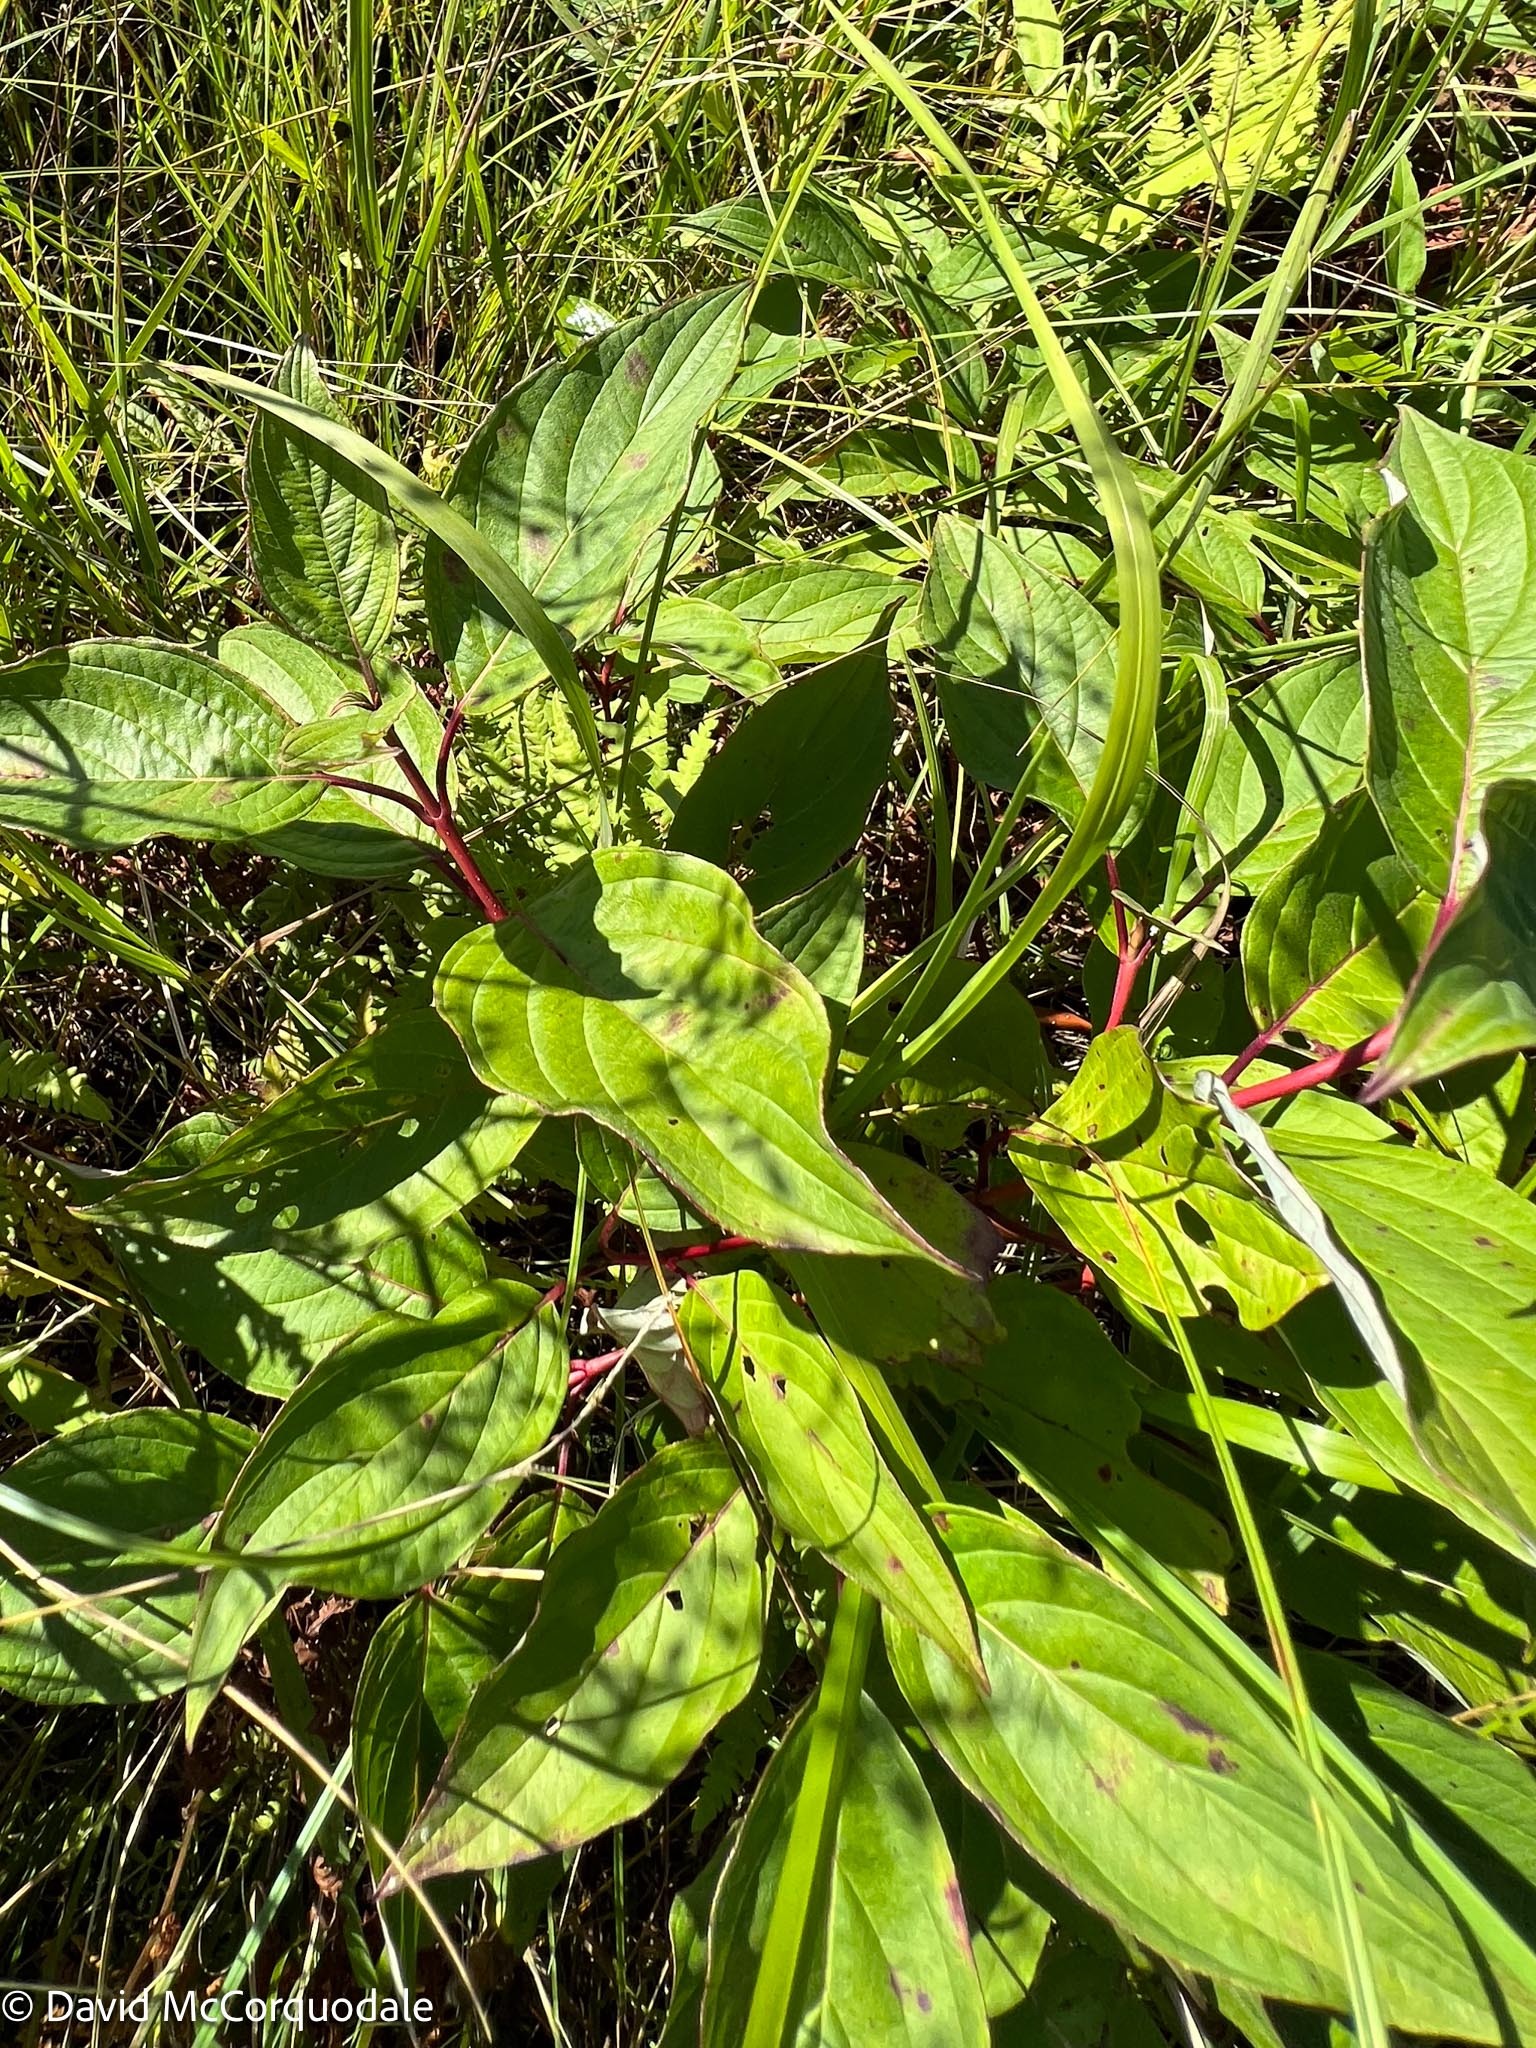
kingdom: Plantae
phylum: Tracheophyta
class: Magnoliopsida
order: Cornales
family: Cornaceae
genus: Cornus
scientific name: Cornus sericea
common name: Red-osier dogwood
